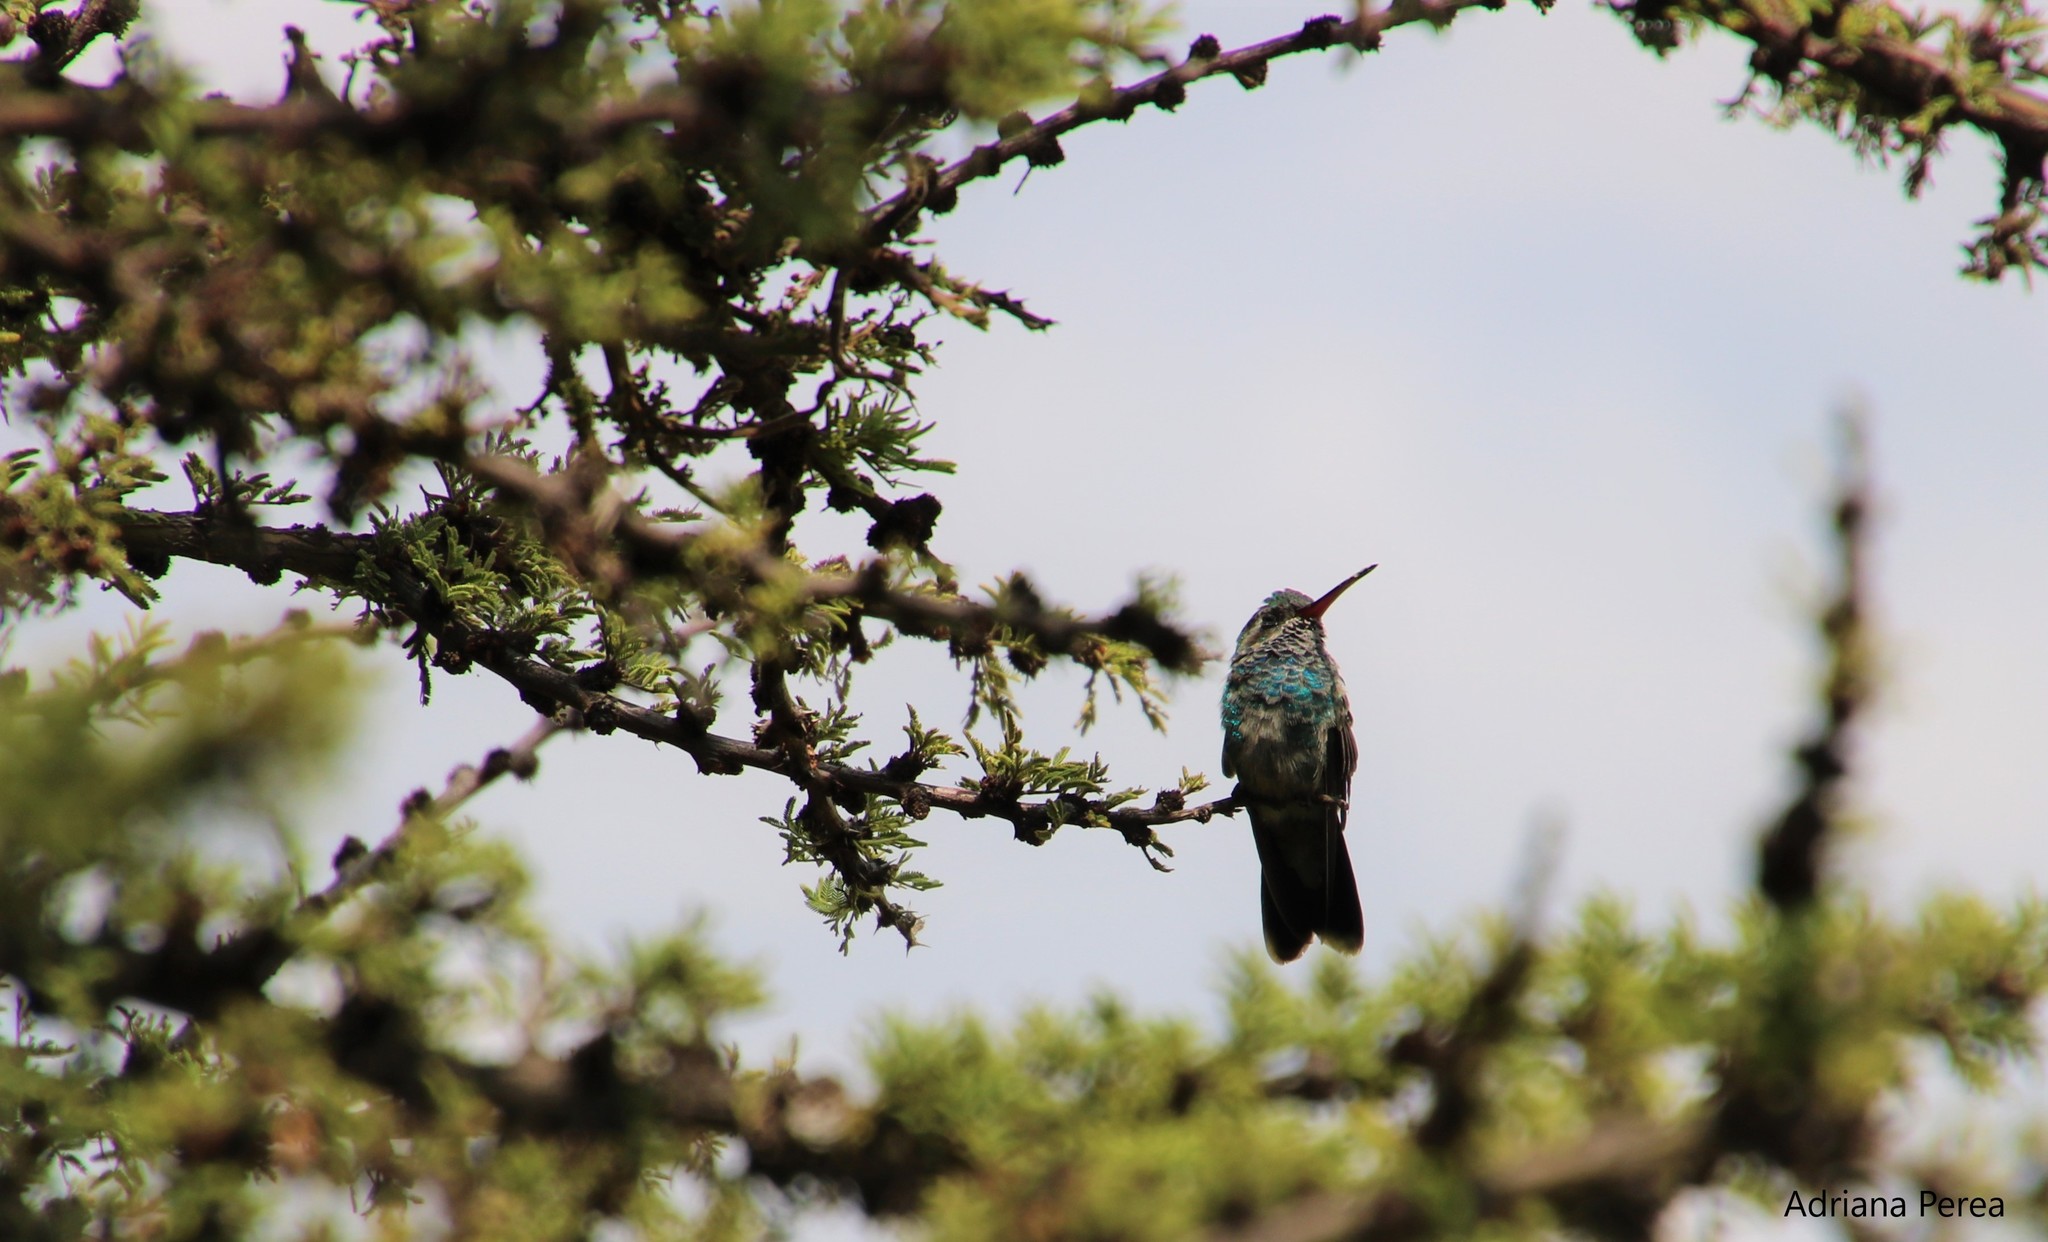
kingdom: Animalia
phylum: Chordata
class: Aves
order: Apodiformes
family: Trochilidae
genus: Cynanthus
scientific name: Cynanthus latirostris
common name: Broad-billed hummingbird
